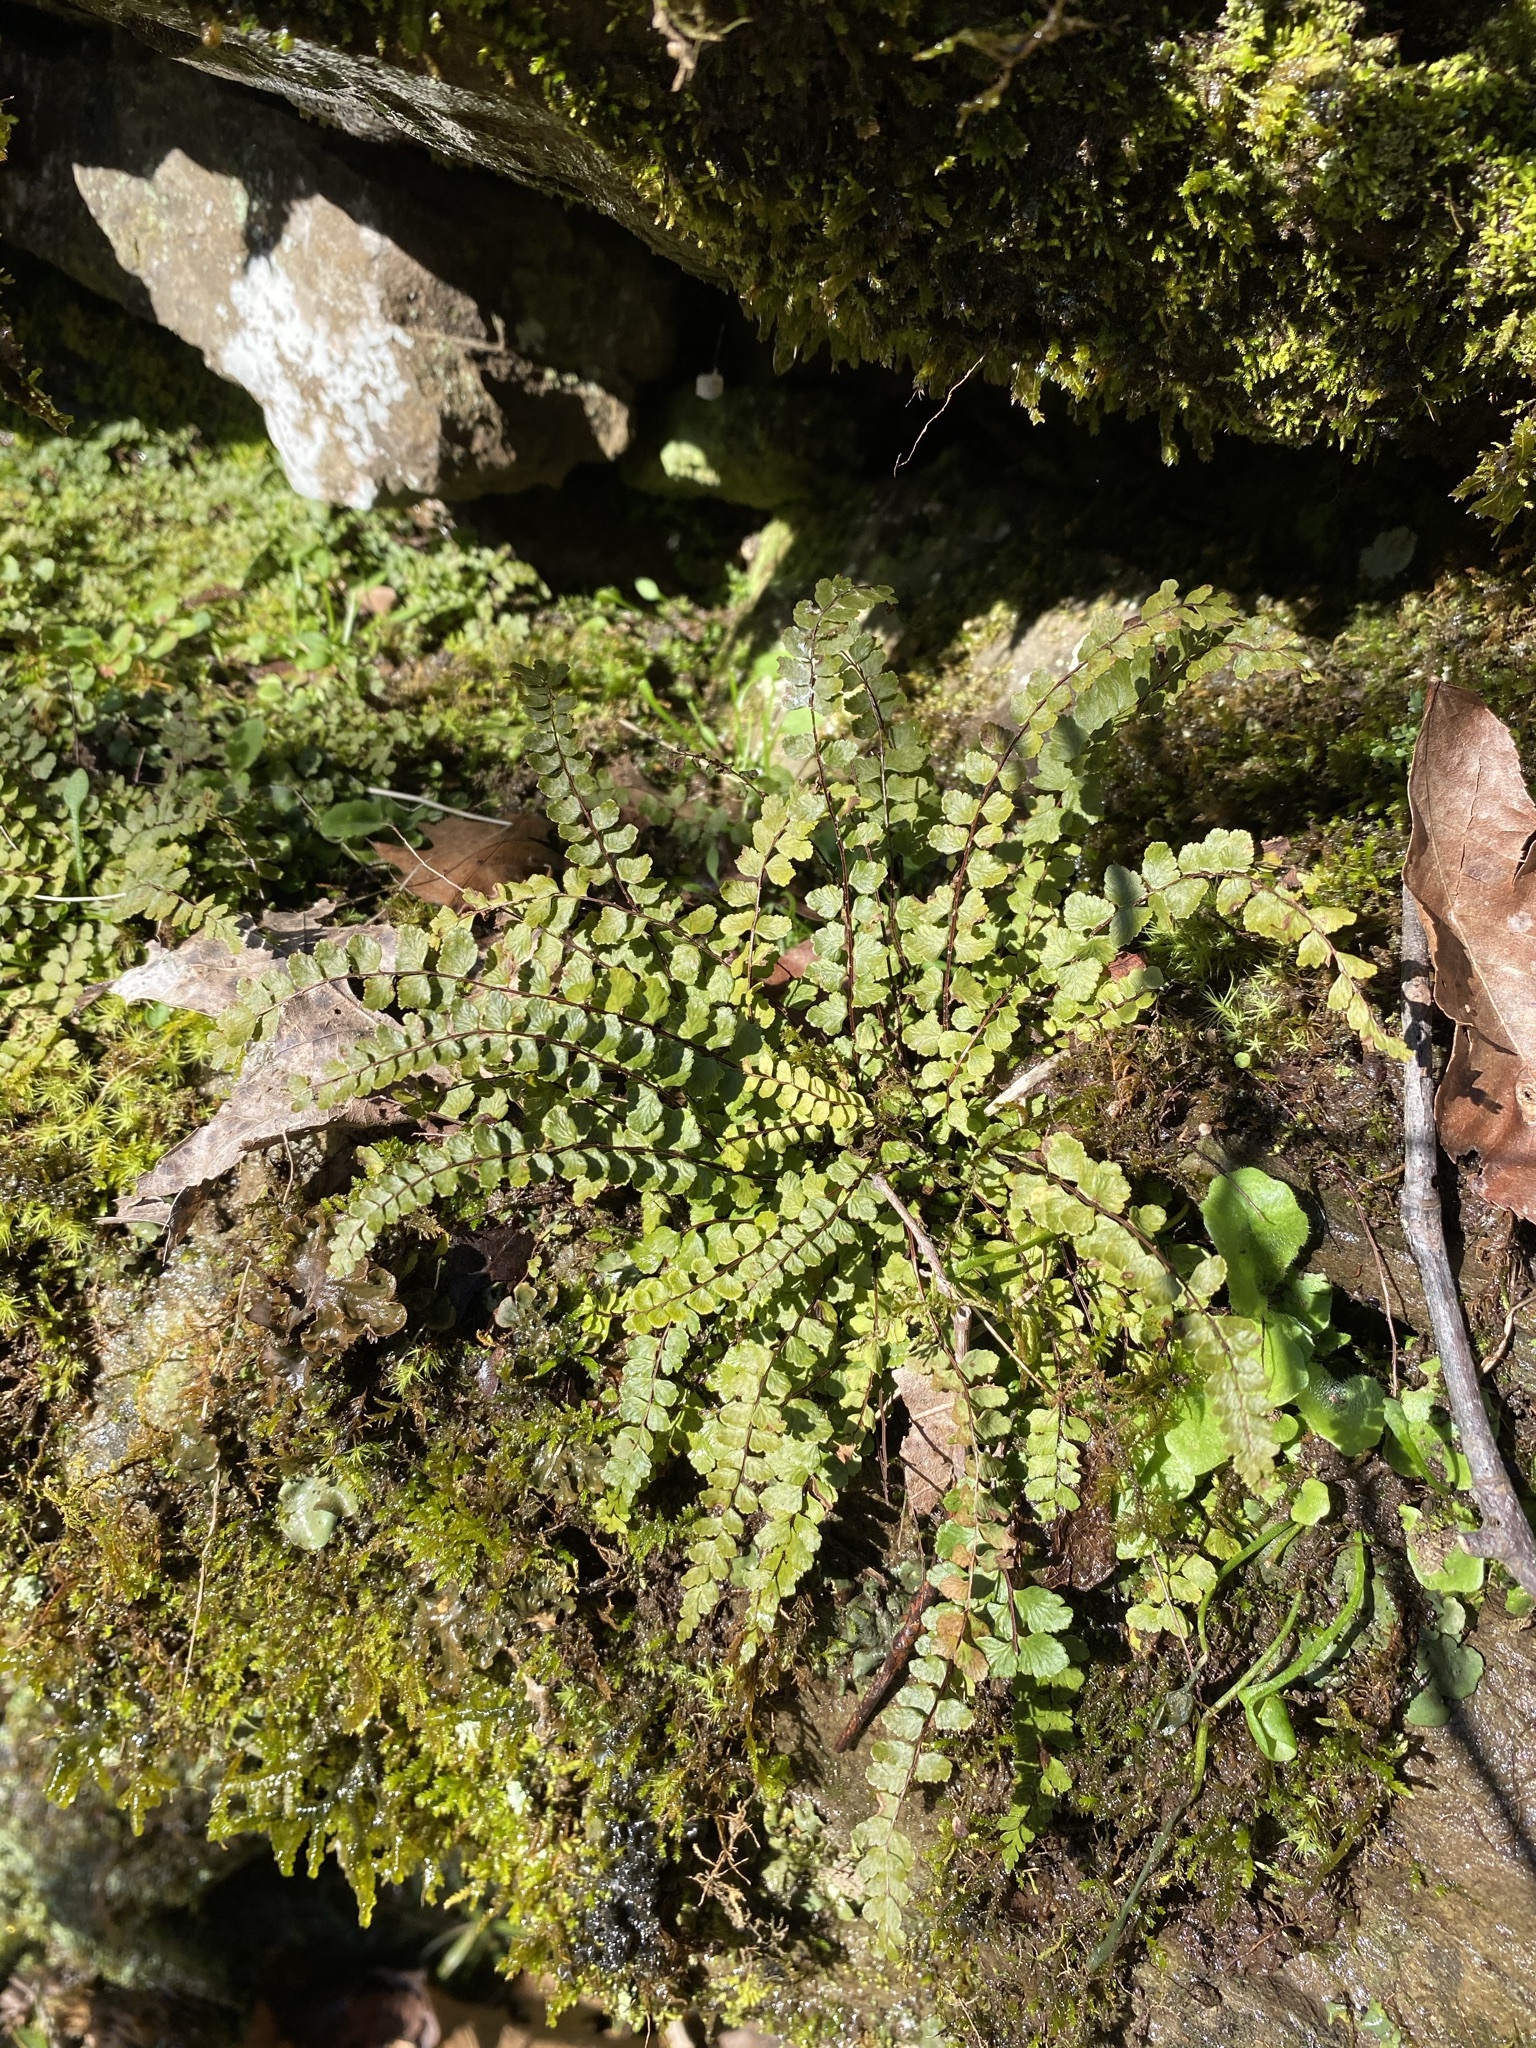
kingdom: Plantae
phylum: Tracheophyta
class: Polypodiopsida
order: Polypodiales
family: Aspleniaceae
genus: Asplenium
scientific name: Asplenium trichomanes
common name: Maidenhair spleenwort
